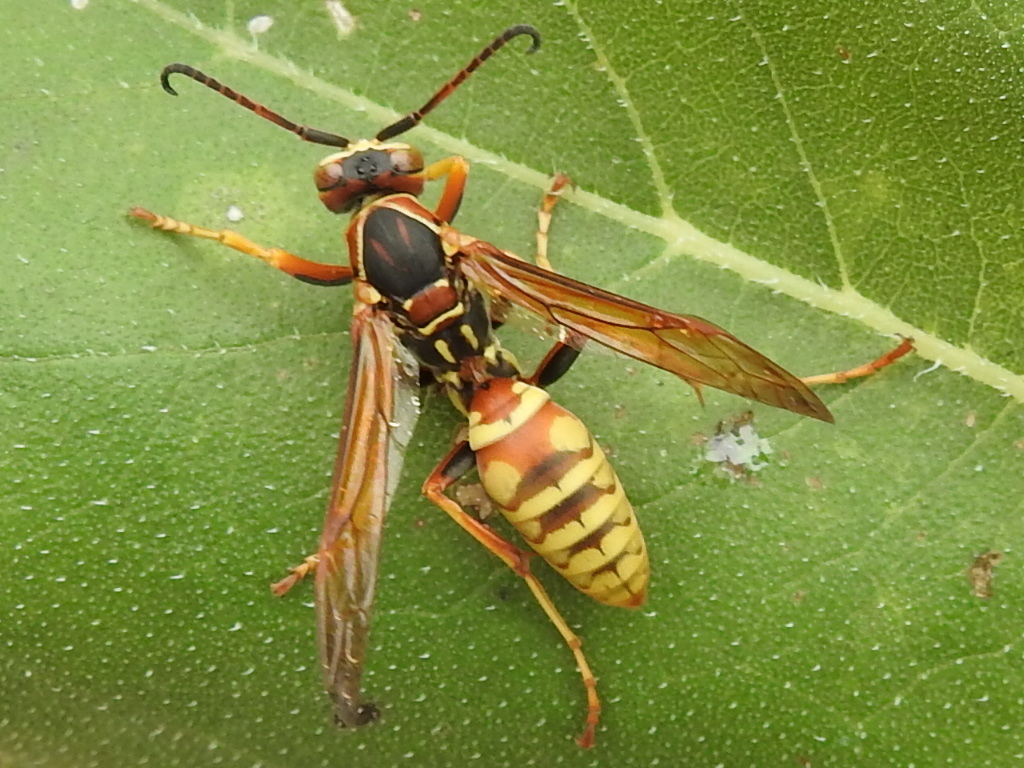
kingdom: Animalia
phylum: Arthropoda
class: Insecta
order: Hymenoptera
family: Eumenidae
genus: Polistes
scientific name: Polistes aurifer
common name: Paper wasp
